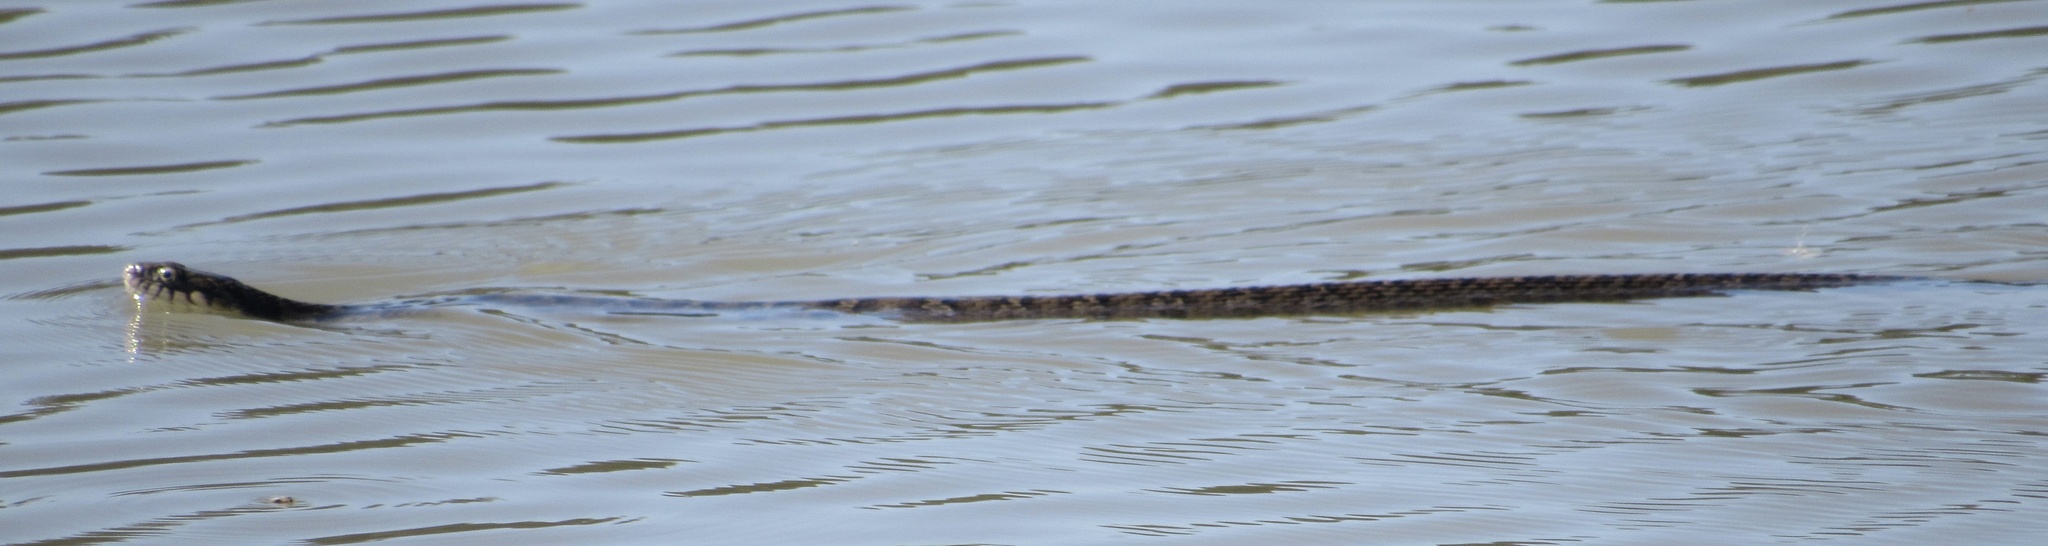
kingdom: Animalia
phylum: Chordata
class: Squamata
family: Colubridae
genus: Nerodia
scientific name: Nerodia erythrogaster
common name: Plainbelly water snake
